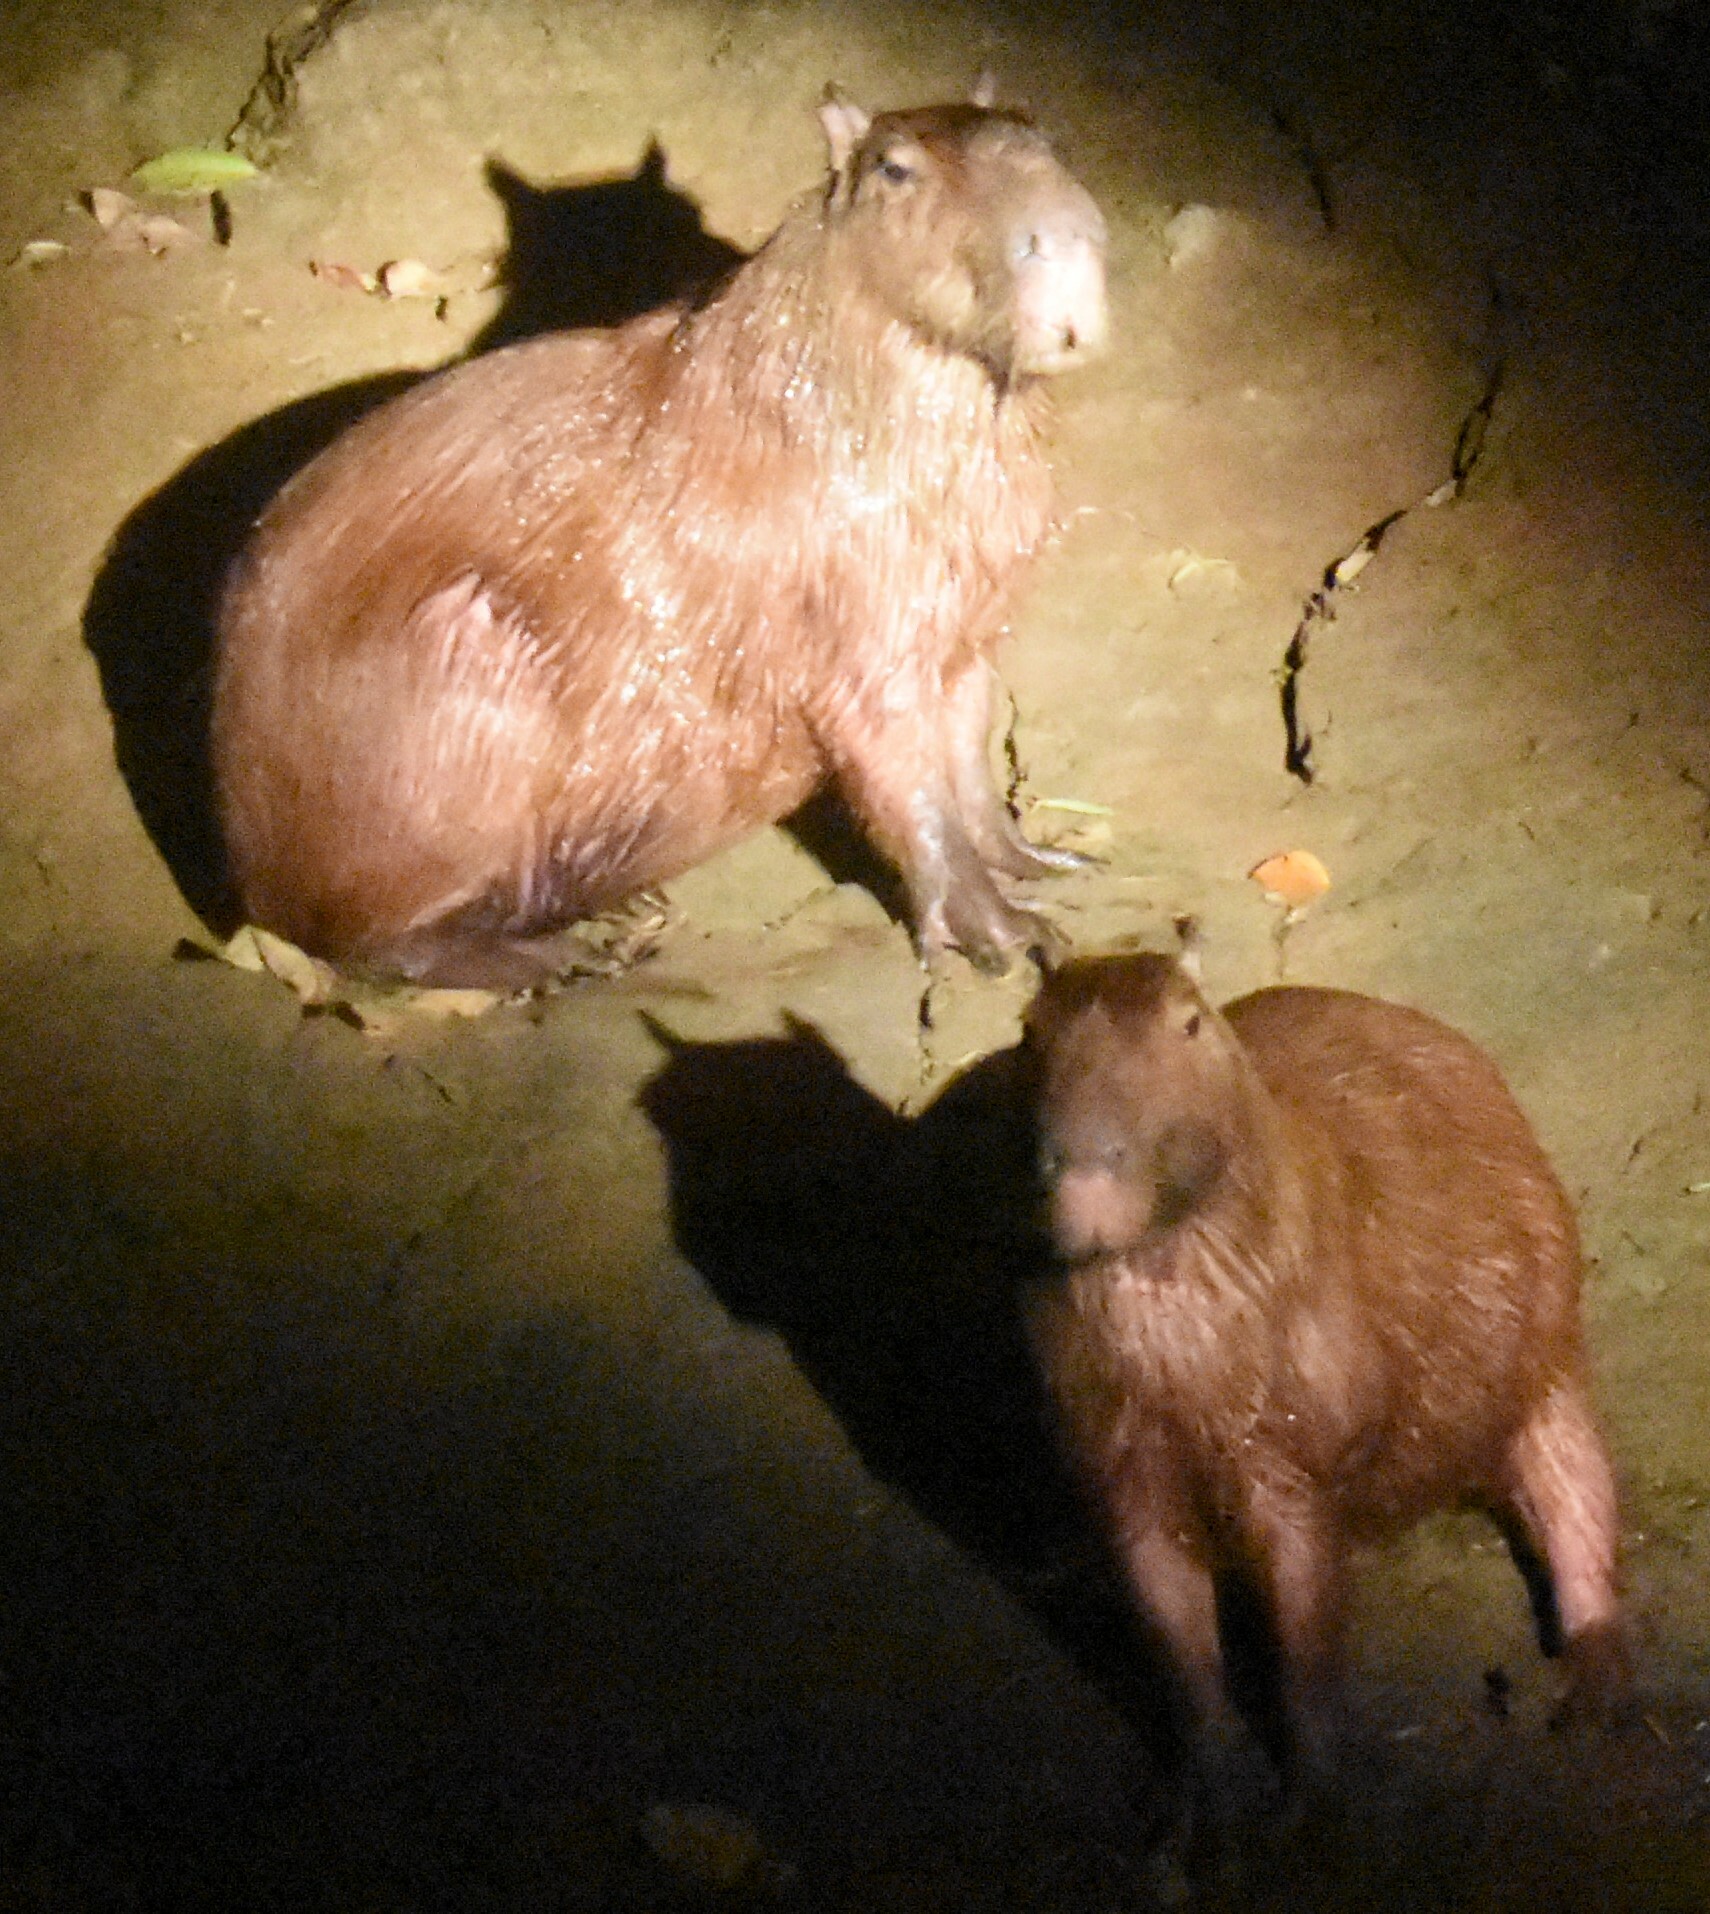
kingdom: Animalia
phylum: Chordata
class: Mammalia
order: Rodentia
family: Caviidae
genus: Hydrochoerus
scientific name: Hydrochoerus hydrochaeris
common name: Capybara
